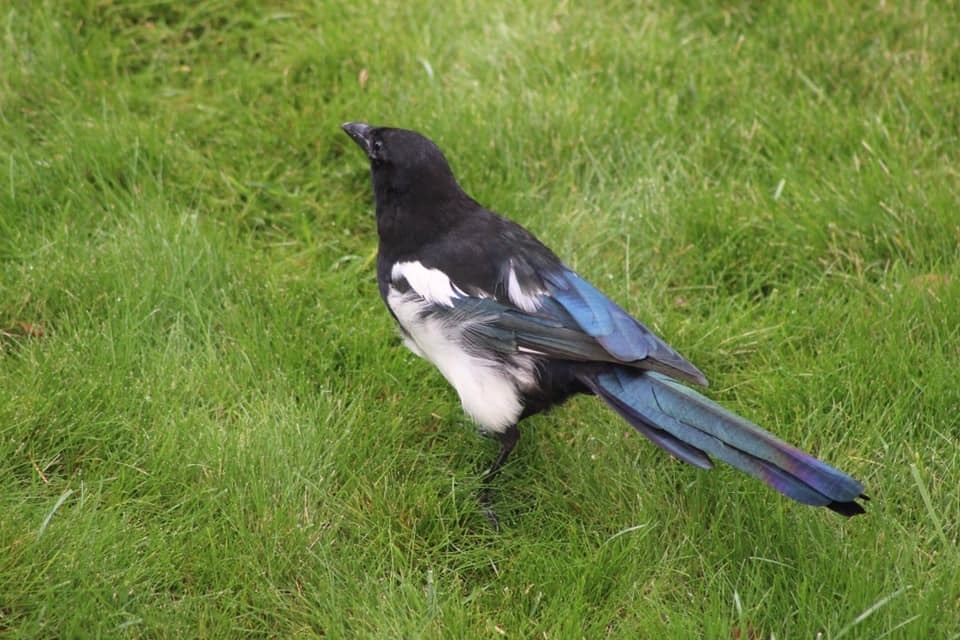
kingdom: Animalia
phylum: Chordata
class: Aves
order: Passeriformes
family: Corvidae
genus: Pica
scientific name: Pica hudsonia
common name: Black-billed magpie
